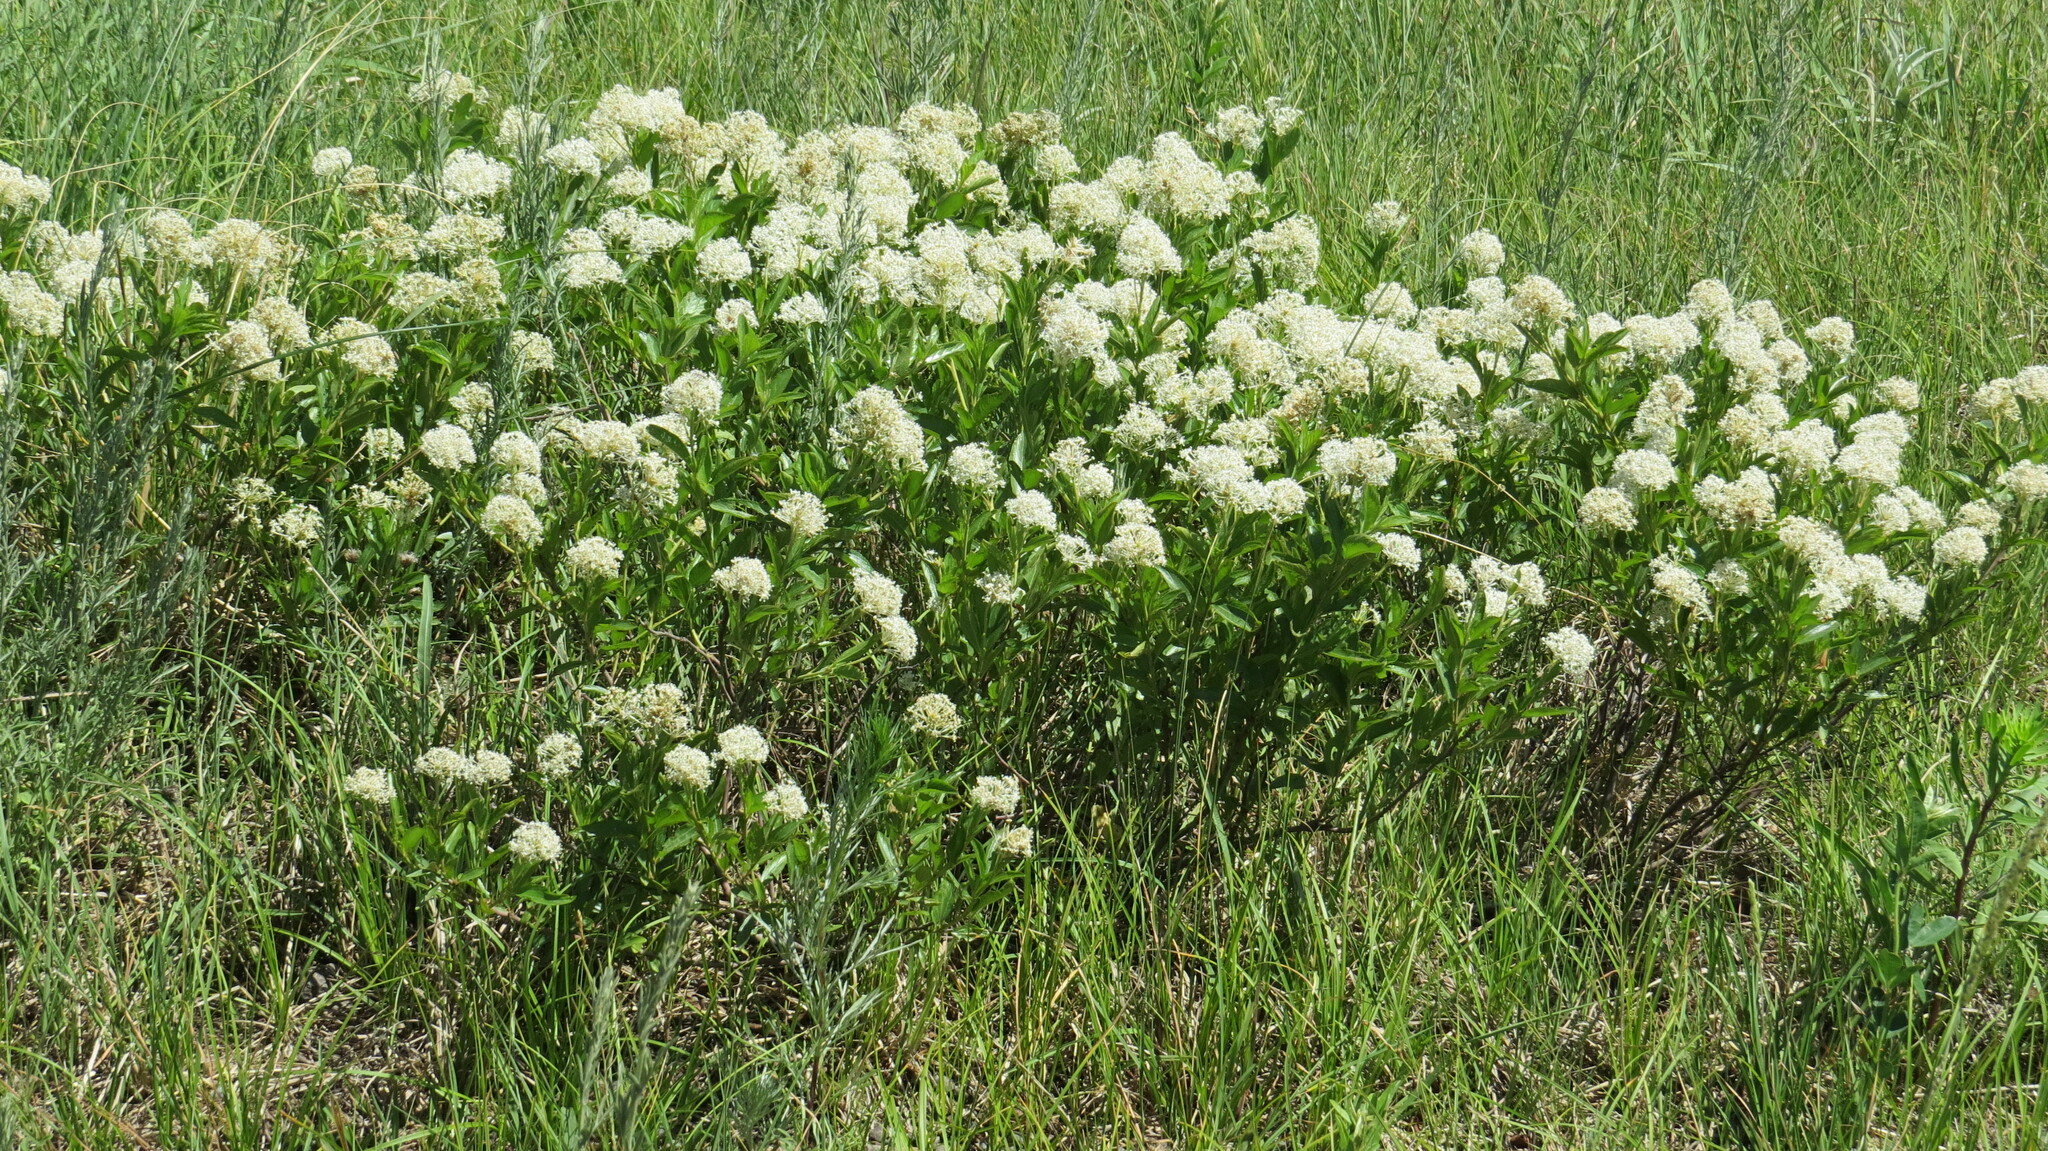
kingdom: Plantae
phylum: Tracheophyta
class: Magnoliopsida
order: Rosales
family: Rhamnaceae
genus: Ceanothus
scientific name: Ceanothus herbaceus
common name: Inland ceanothus
